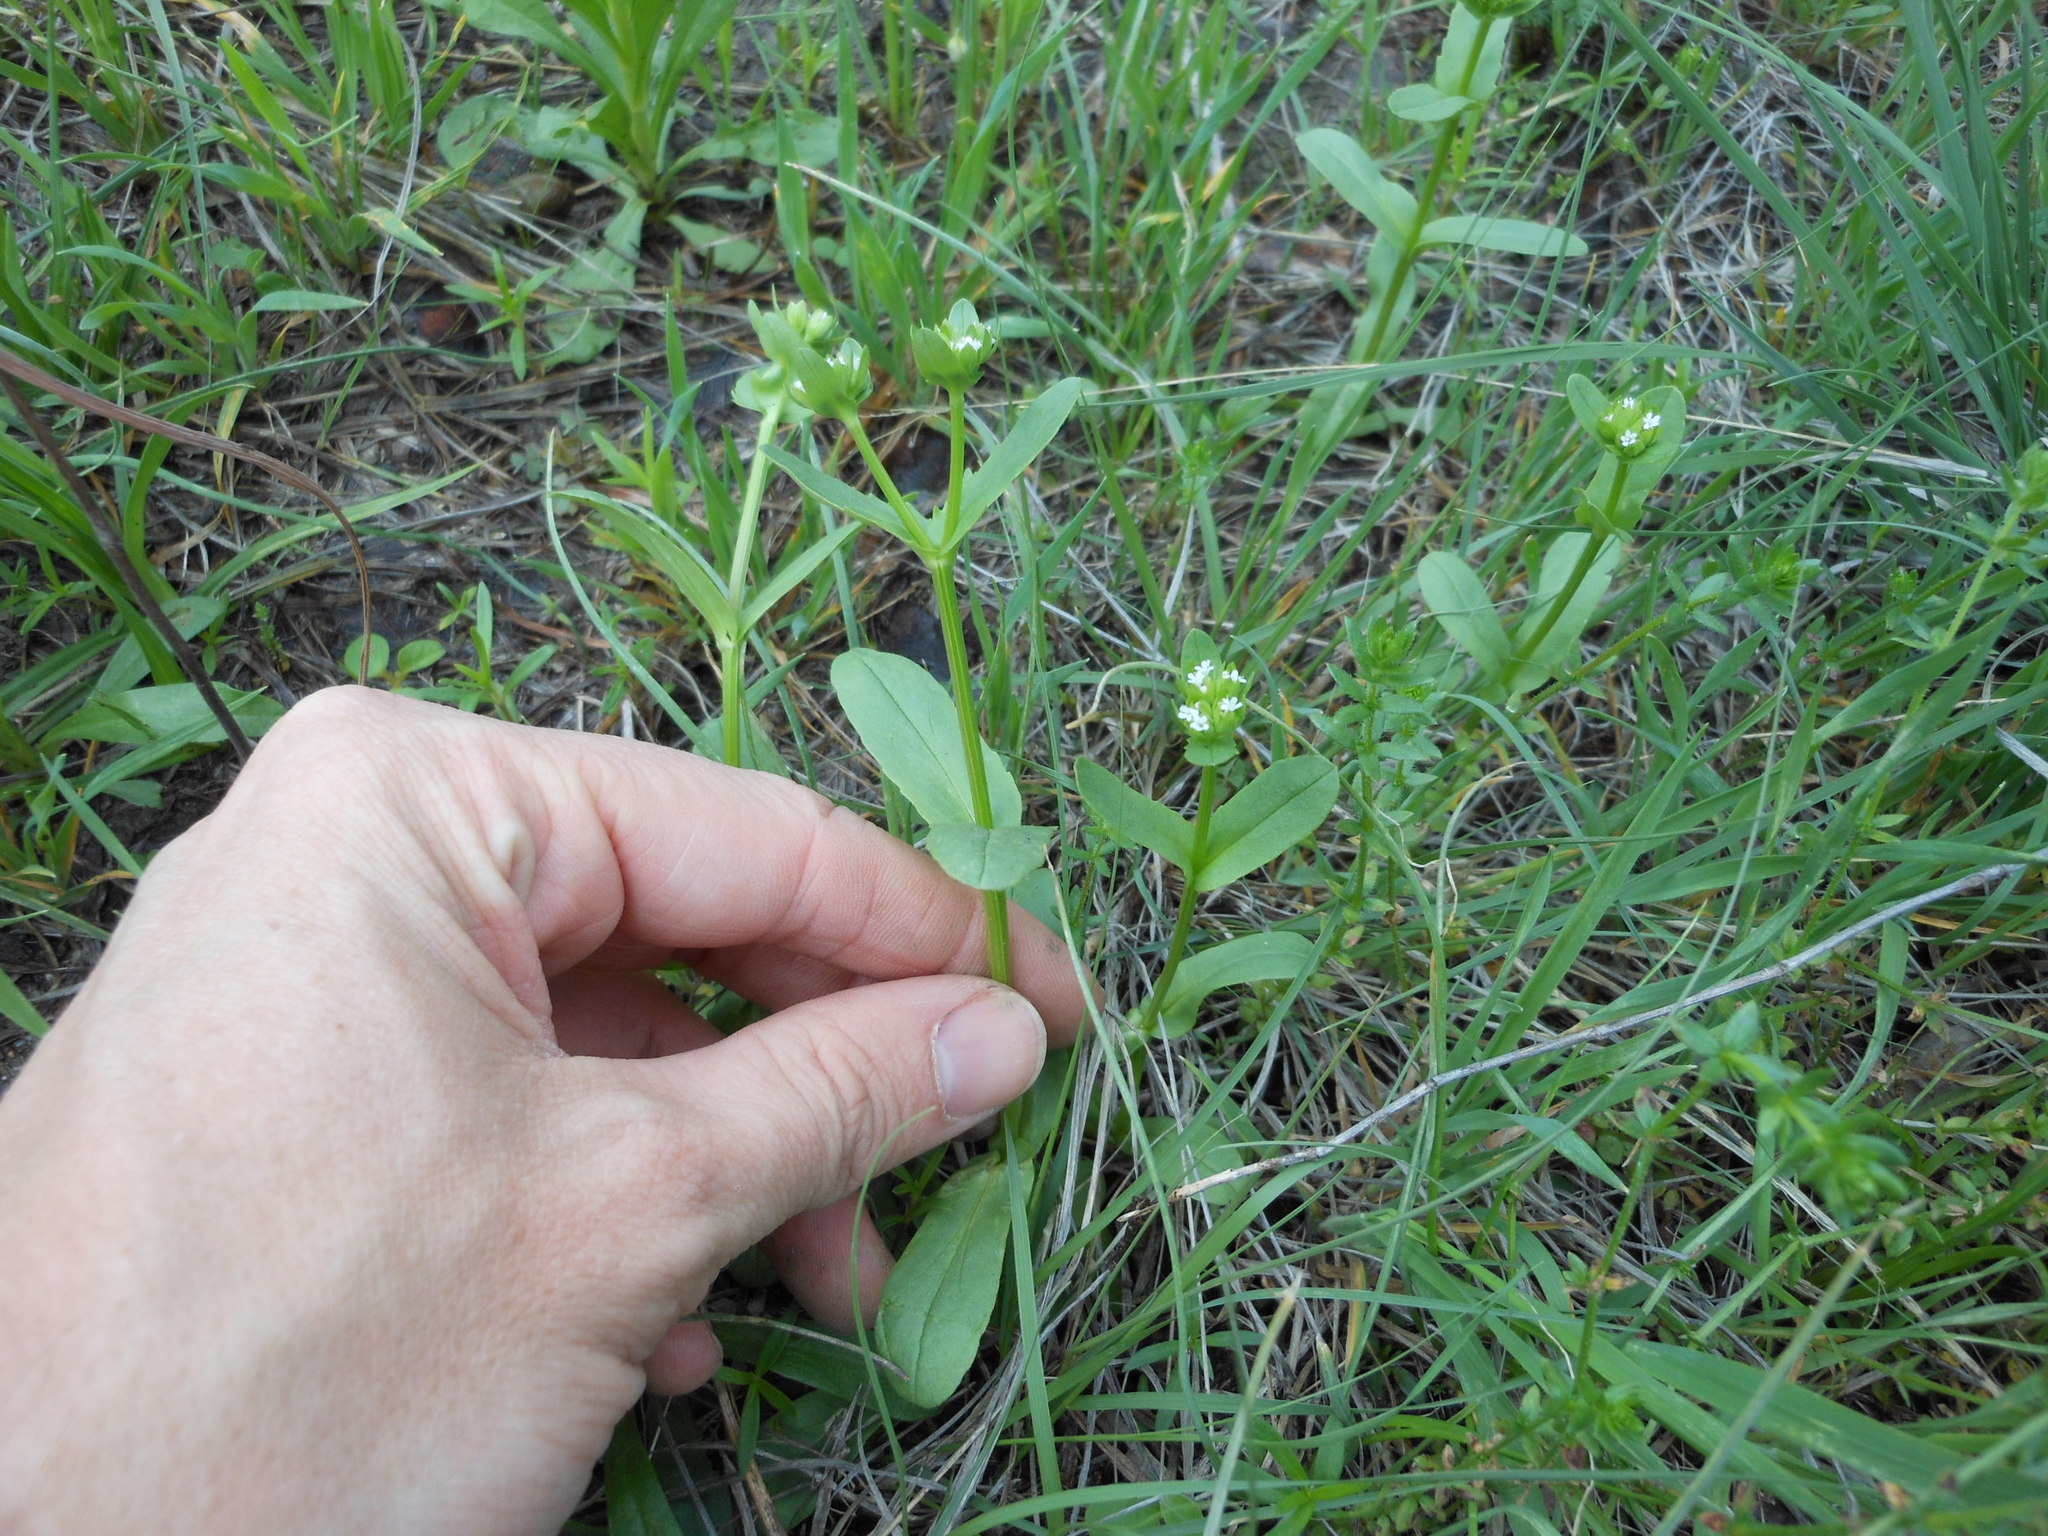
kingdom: Plantae
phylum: Tracheophyta
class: Magnoliopsida
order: Dipsacales
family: Caprifoliaceae
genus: Valerianella
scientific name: Valerianella amarella
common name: Hariy cornsalad
